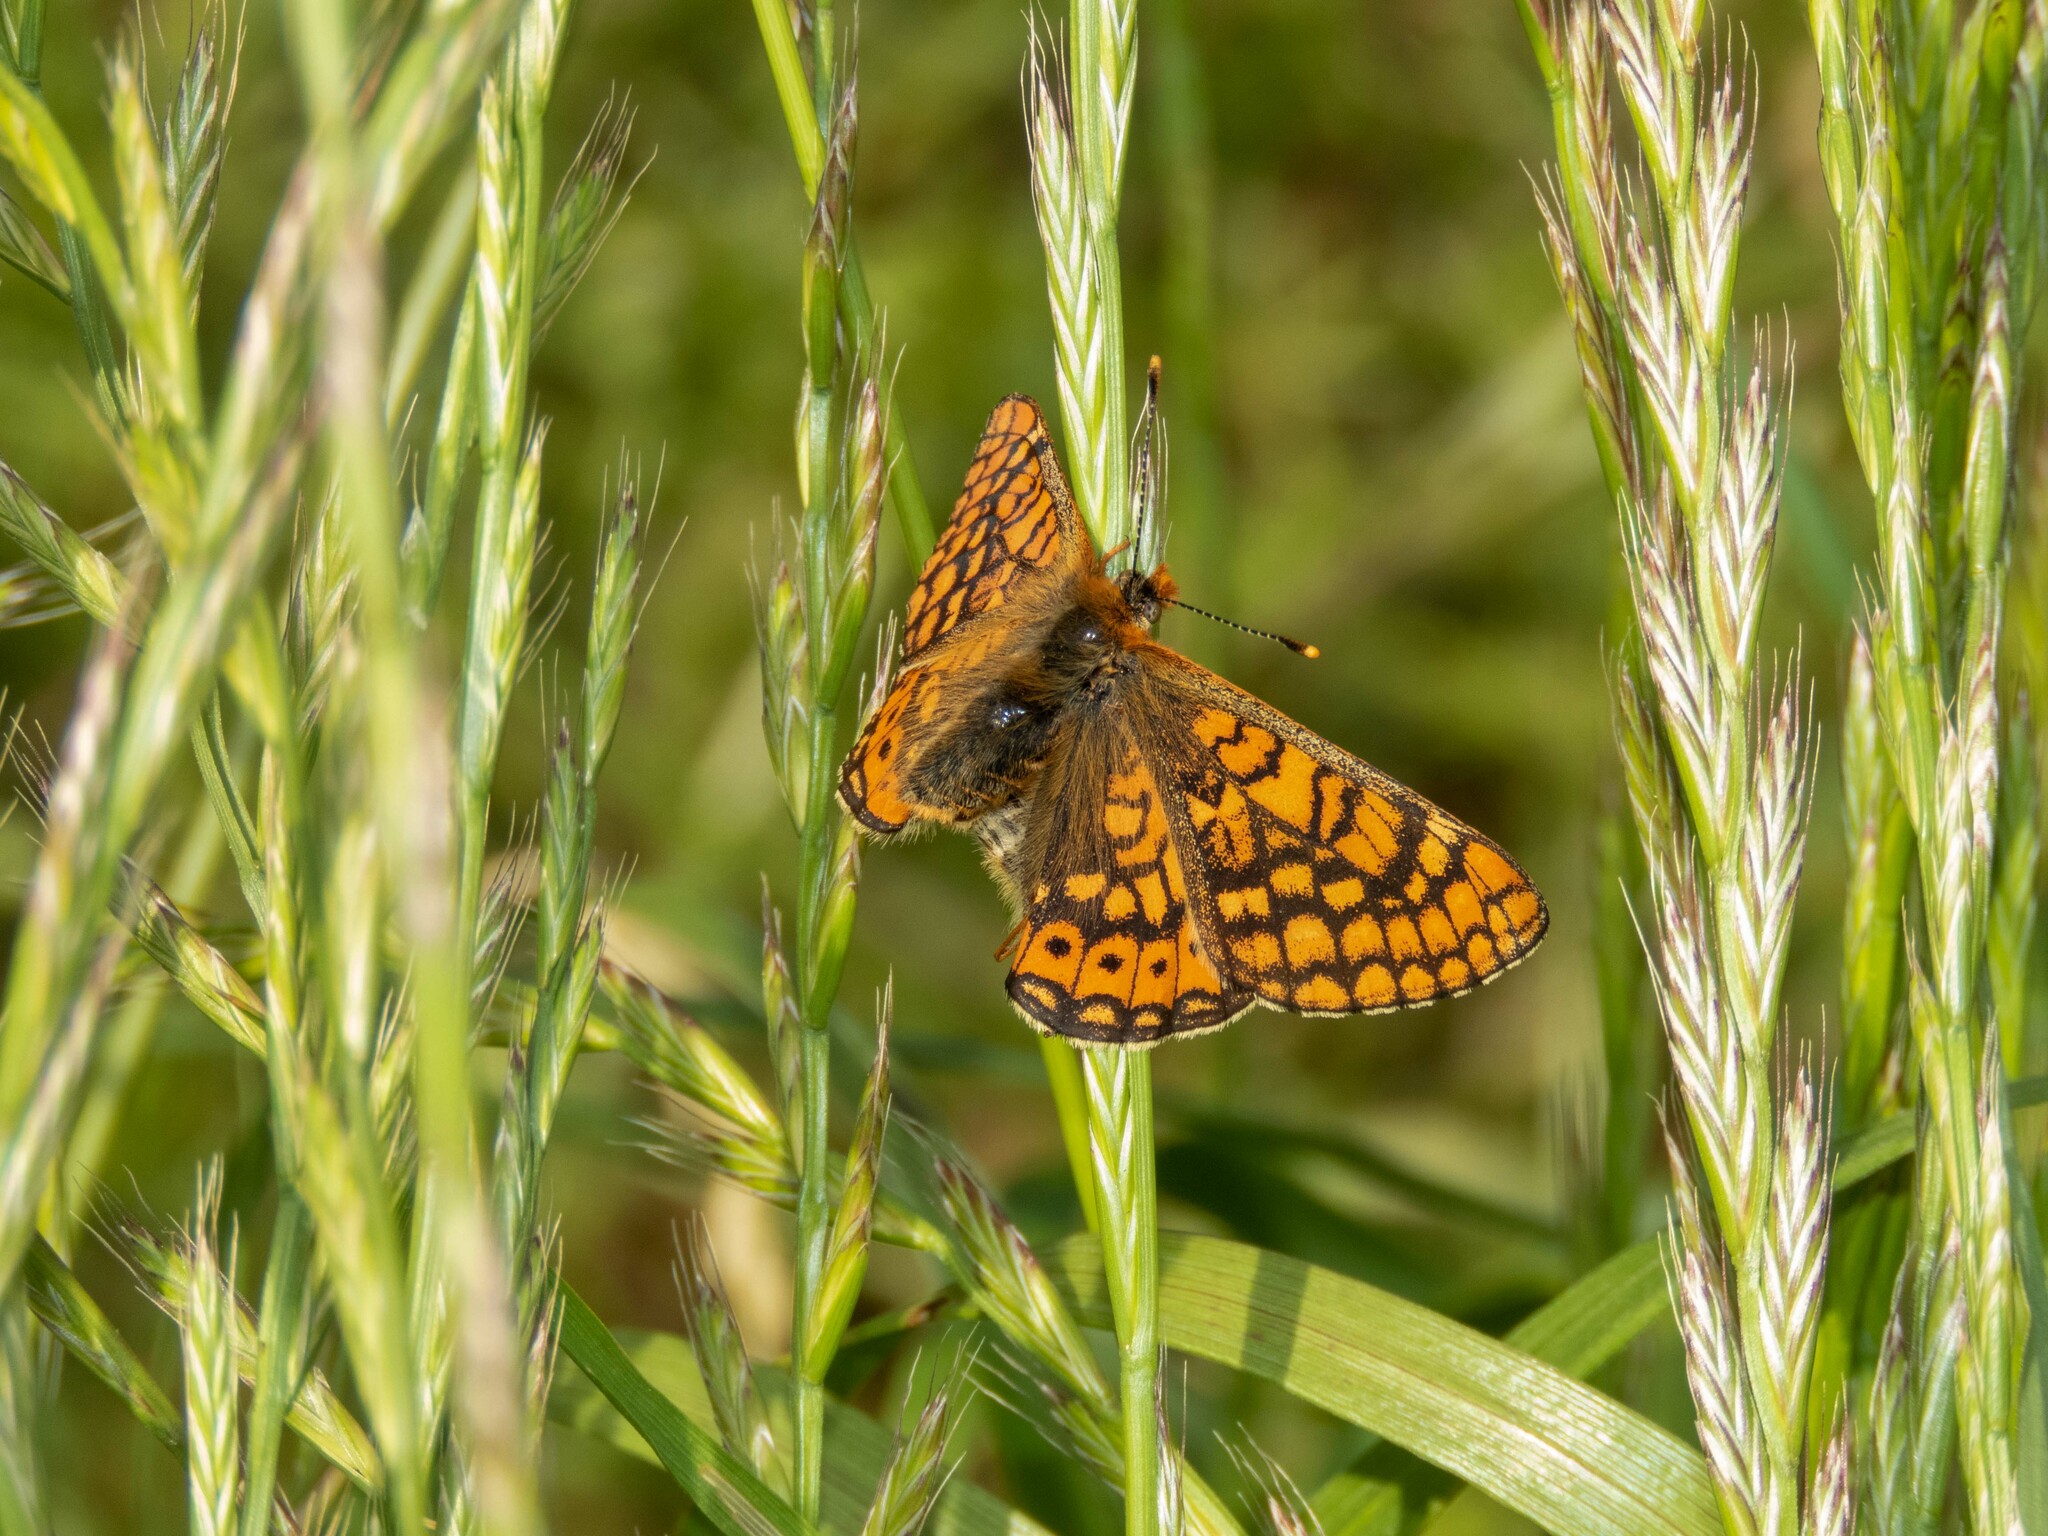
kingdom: Animalia
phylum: Arthropoda
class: Insecta
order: Lepidoptera
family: Nymphalidae
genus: Euphydryas
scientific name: Euphydryas aurinia
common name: Marsh fritillary
